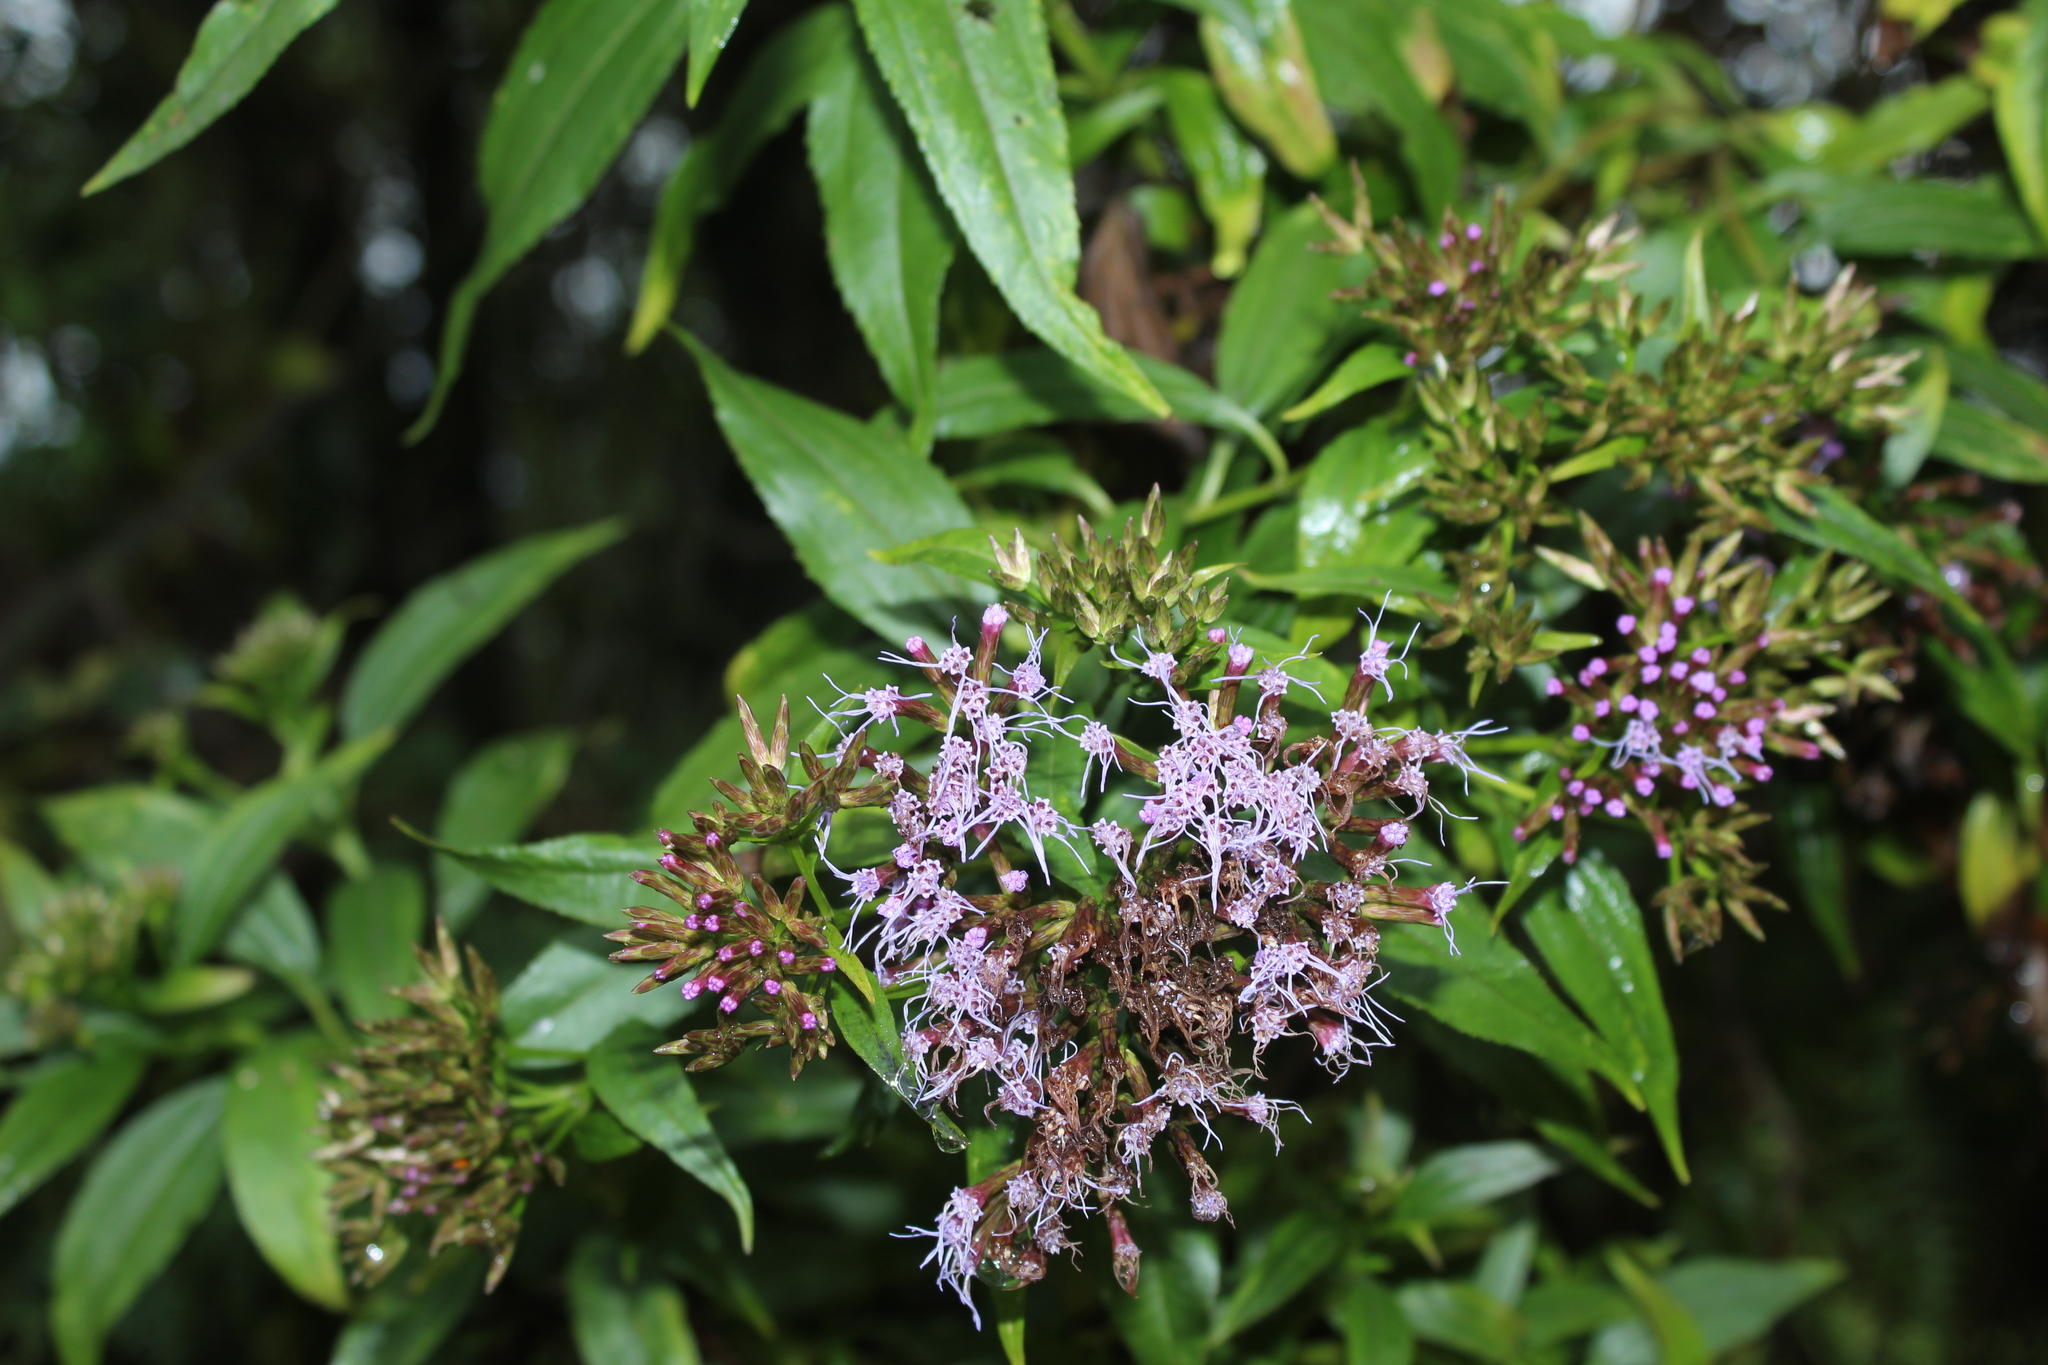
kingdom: Plantae
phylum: Tracheophyta
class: Magnoliopsida
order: Asterales
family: Asteraceae
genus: Chromolaena
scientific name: Chromolaena perglabra
